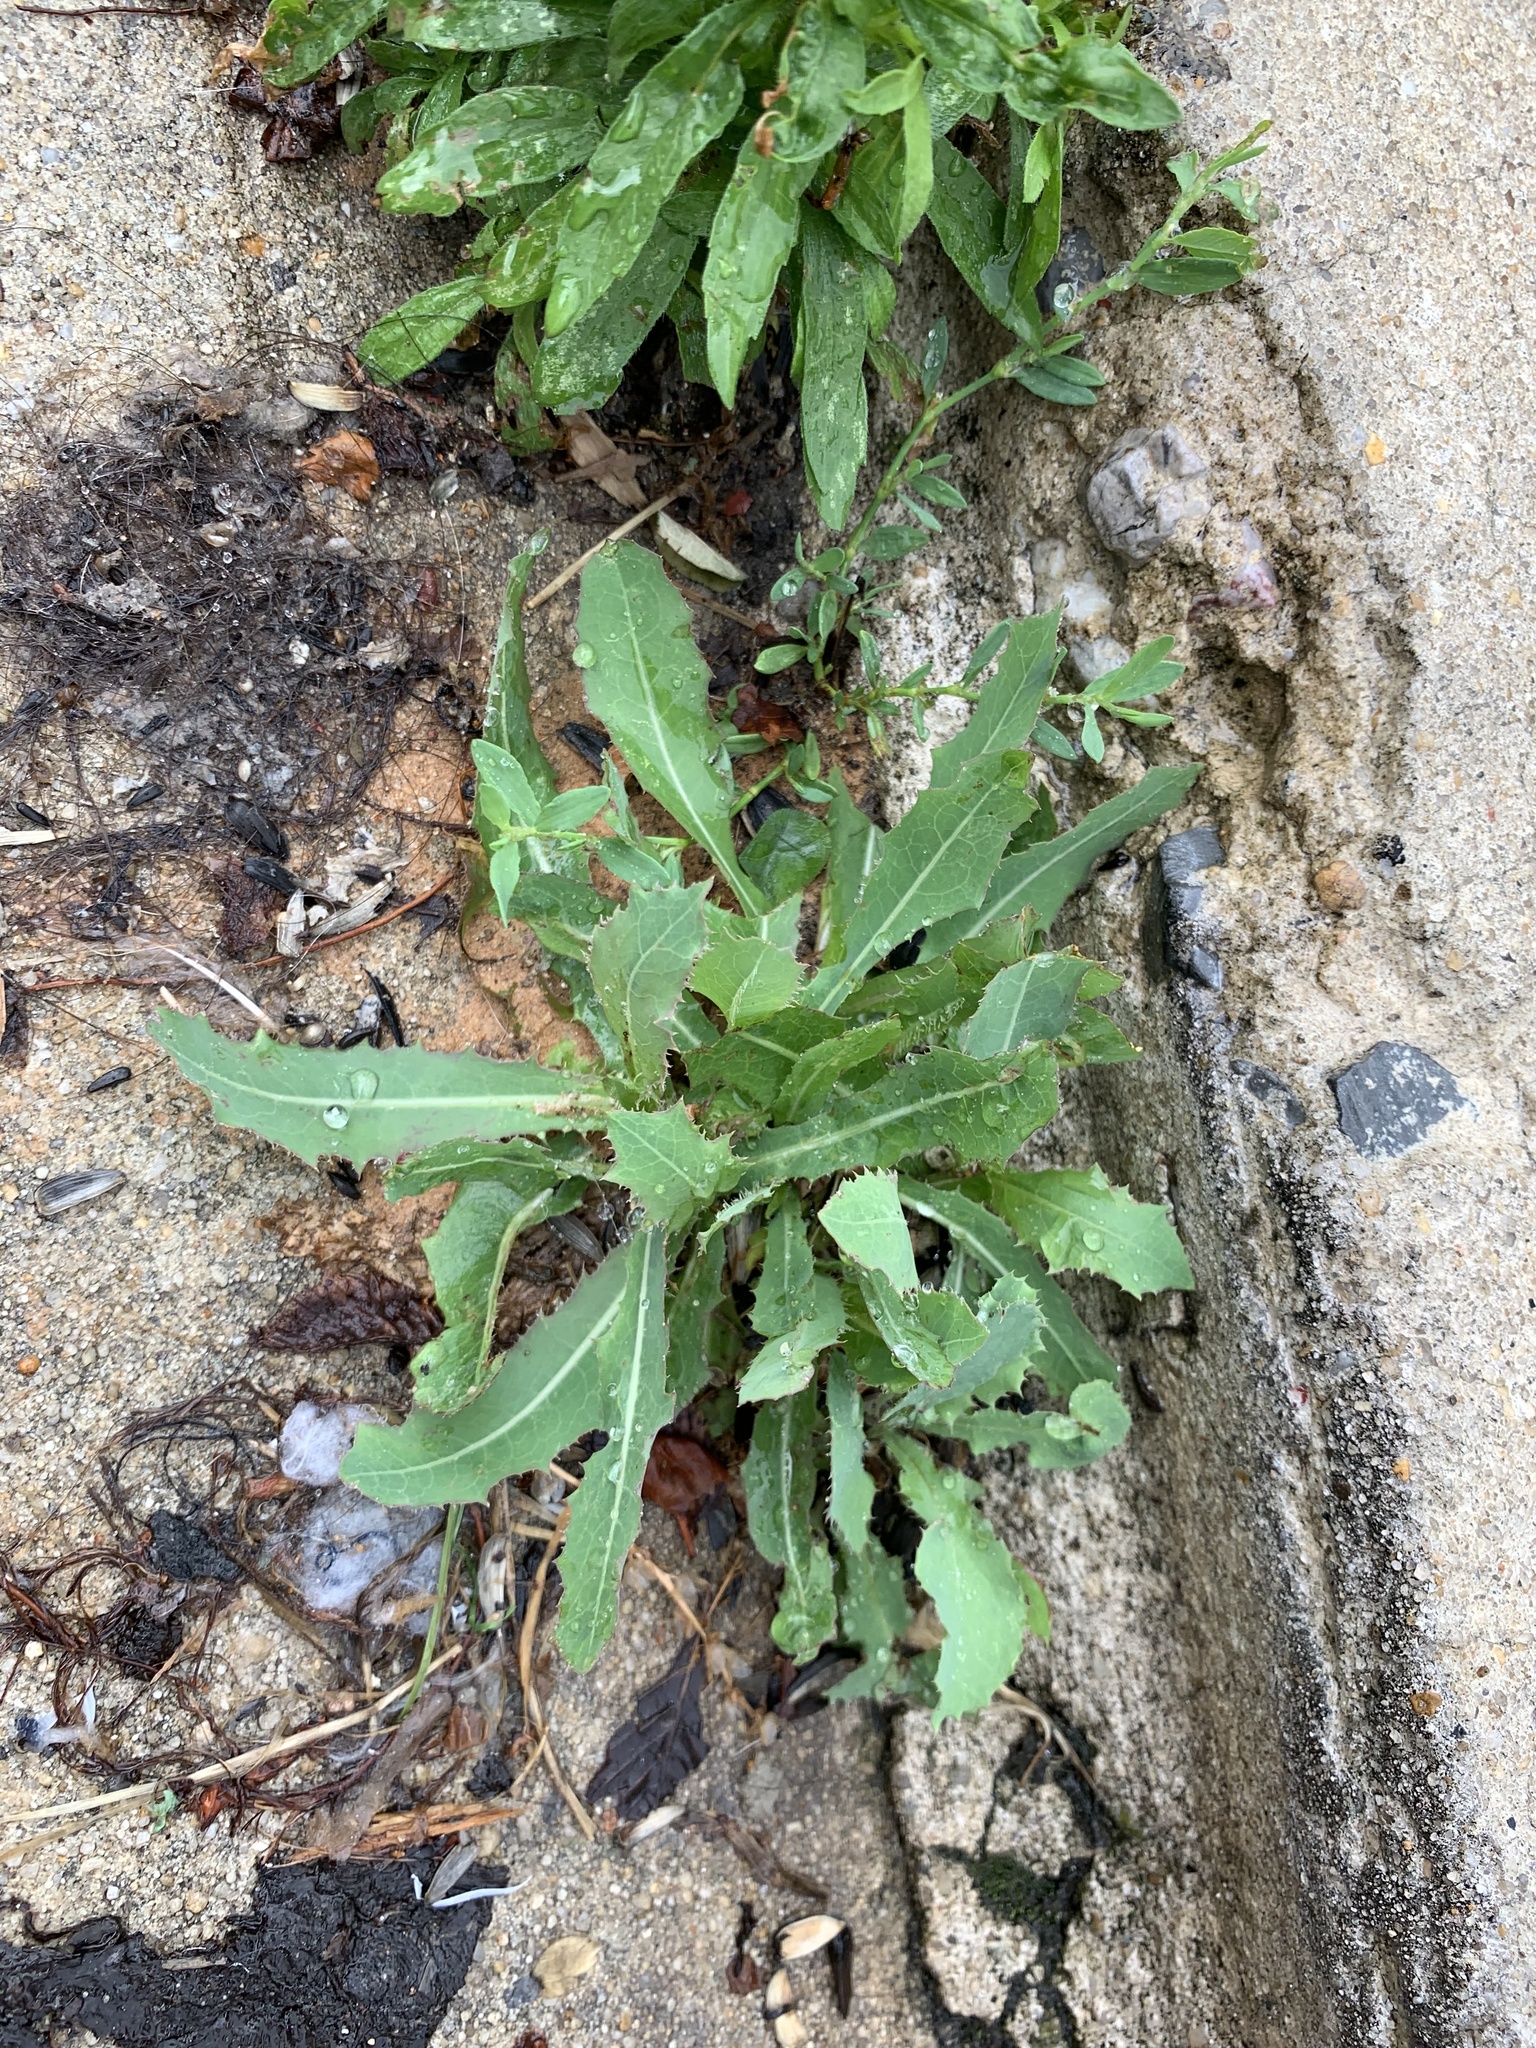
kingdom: Plantae
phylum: Tracheophyta
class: Magnoliopsida
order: Asterales
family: Asteraceae
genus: Lactuca
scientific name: Lactuca serriola
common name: Prickly lettuce
